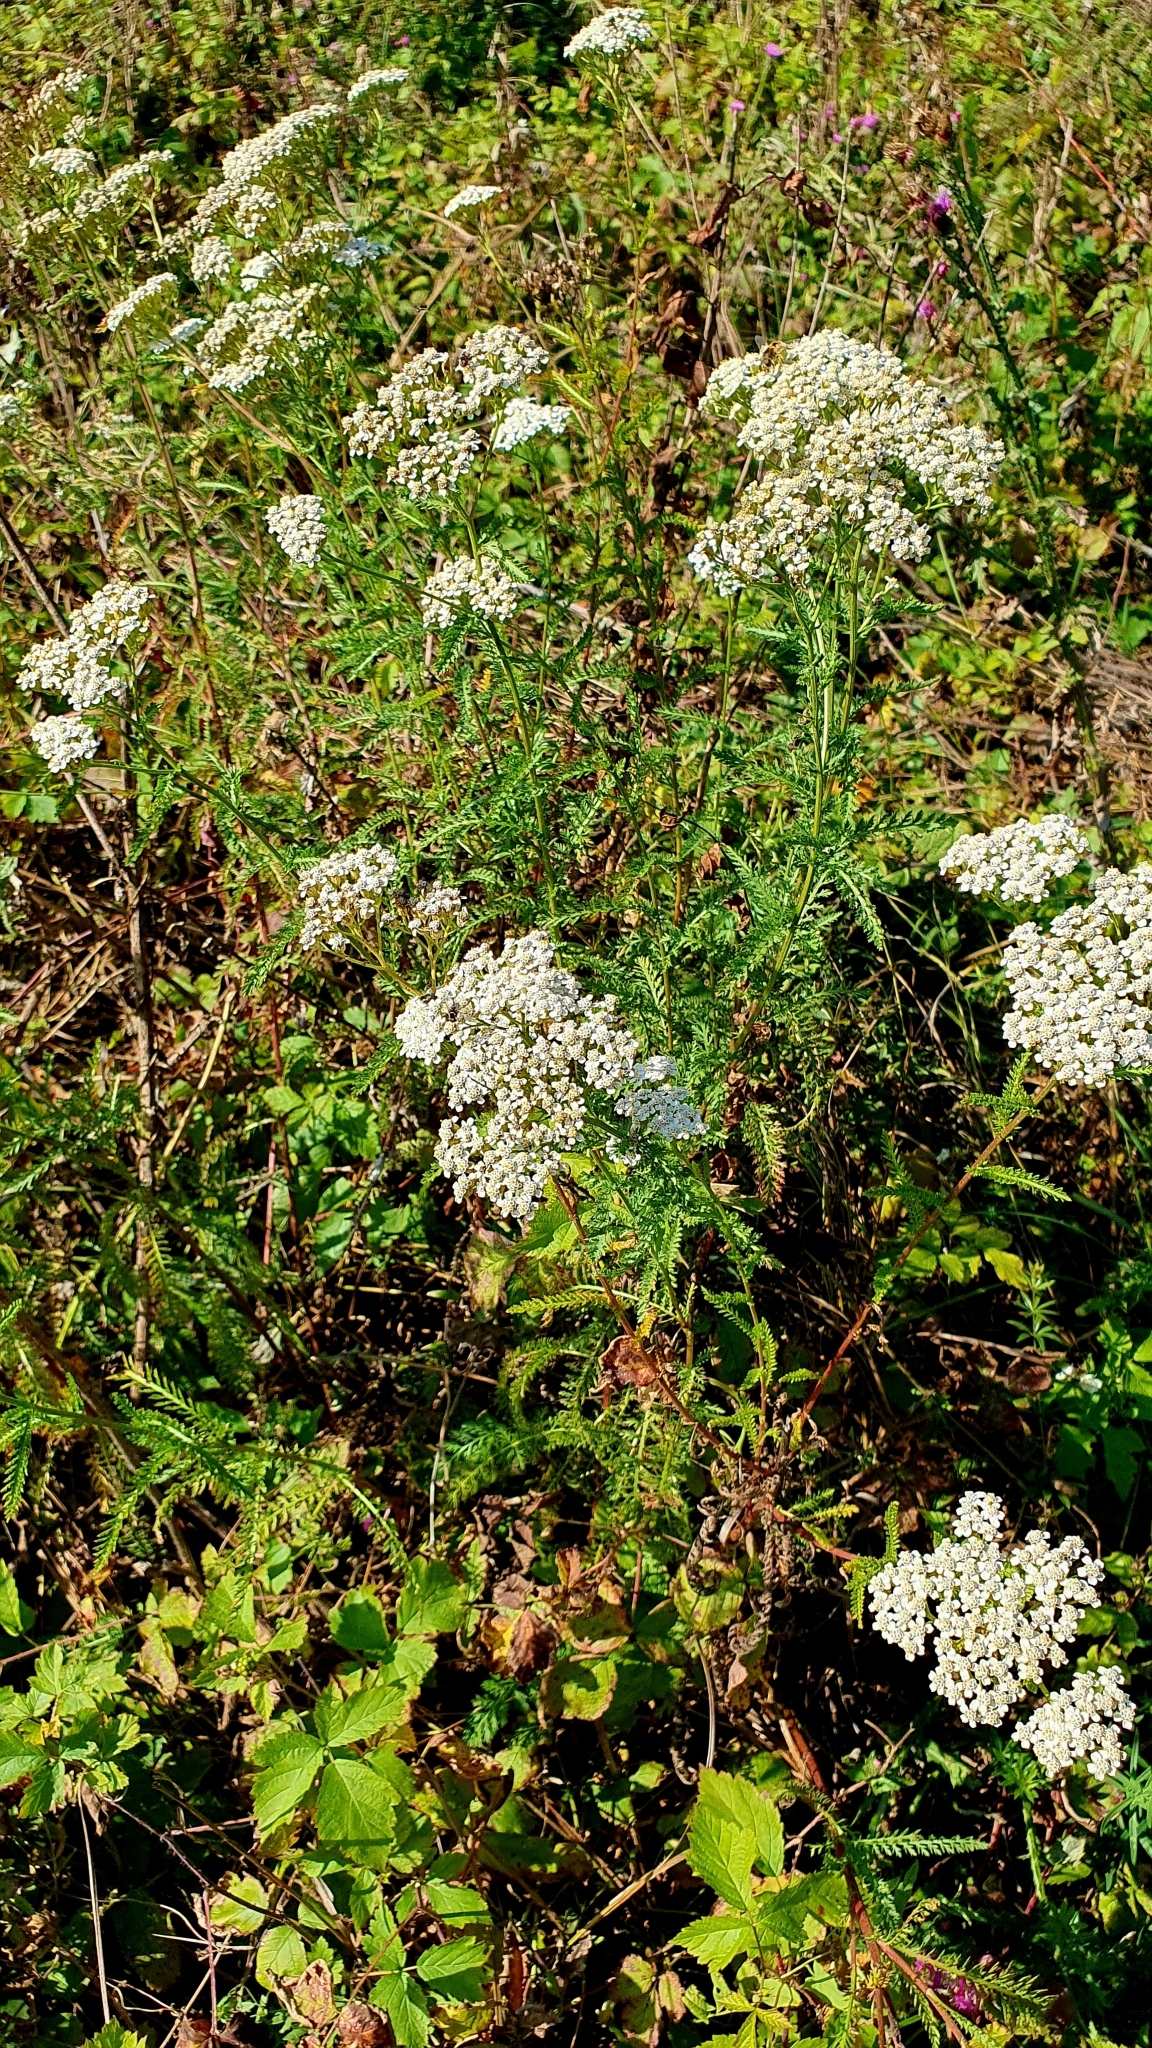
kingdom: Plantae
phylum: Tracheophyta
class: Magnoliopsida
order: Asterales
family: Asteraceae
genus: Achillea
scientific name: Achillea millefolium
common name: Yarrow
